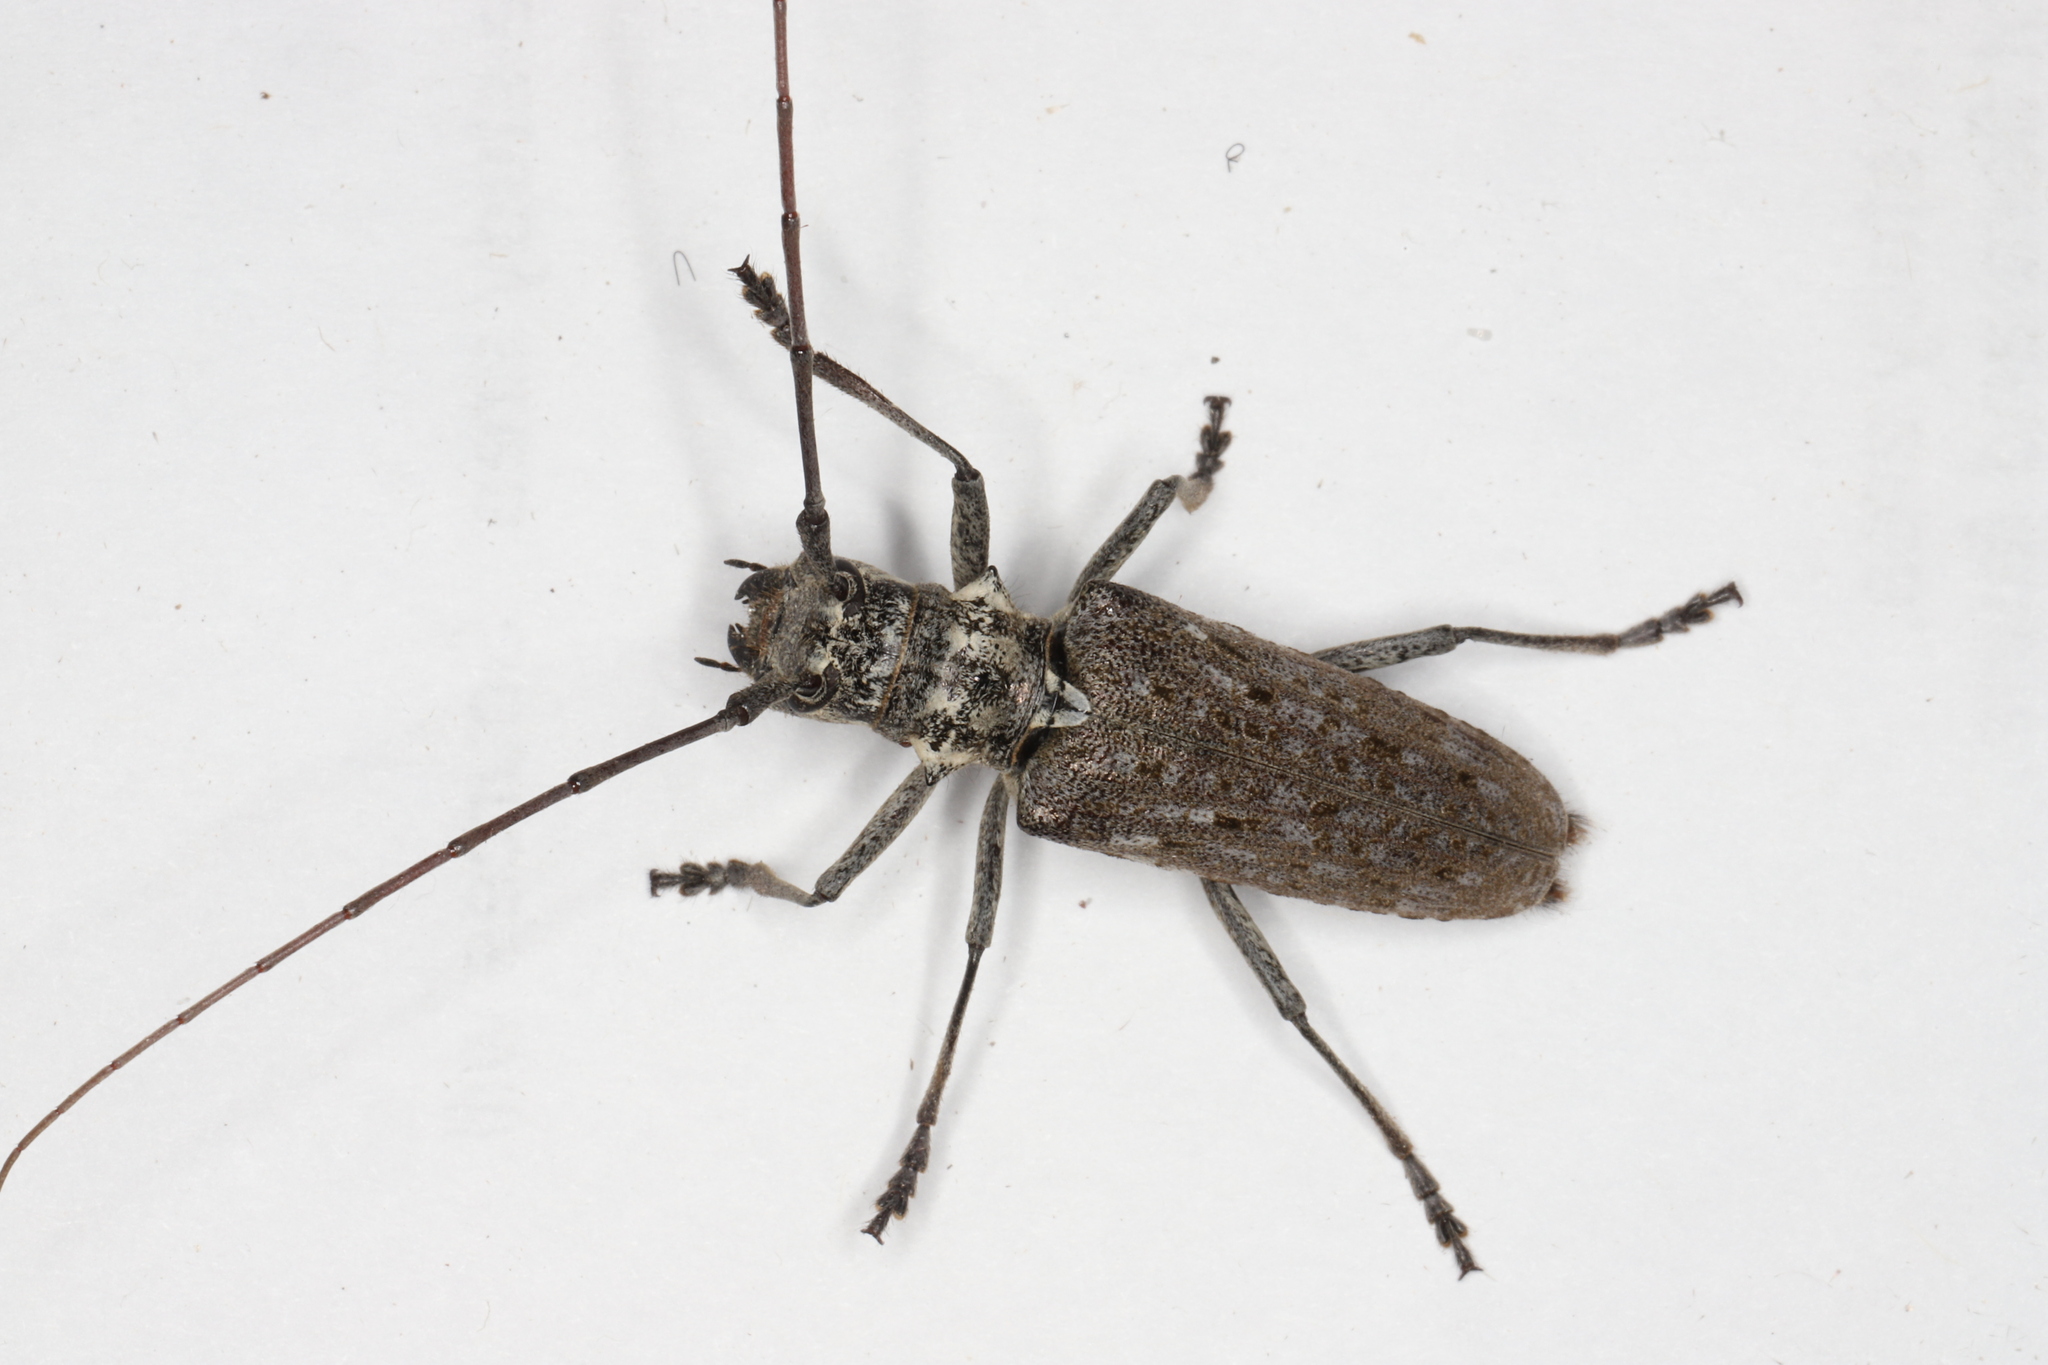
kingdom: Animalia
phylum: Arthropoda
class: Insecta
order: Coleoptera
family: Cerambycidae
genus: Monochamus
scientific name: Monochamus notatus
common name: Northeastern pine sawyer beetle
